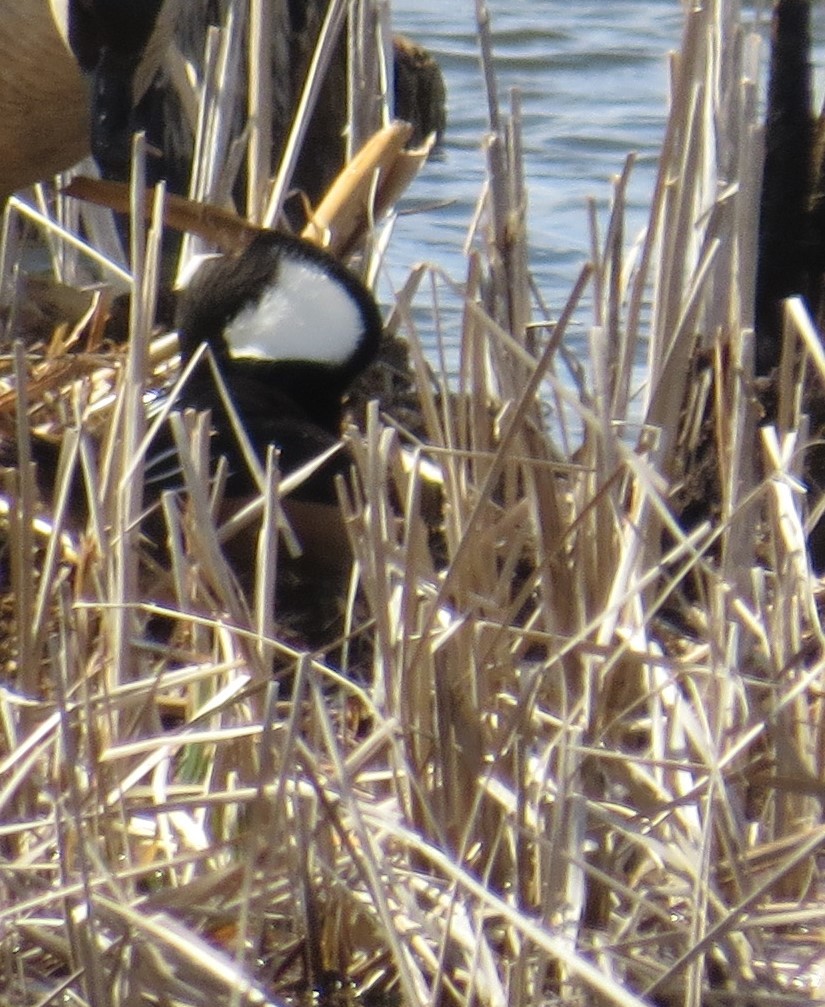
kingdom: Animalia
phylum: Chordata
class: Aves
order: Anseriformes
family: Anatidae
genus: Lophodytes
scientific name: Lophodytes cucullatus
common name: Hooded merganser
